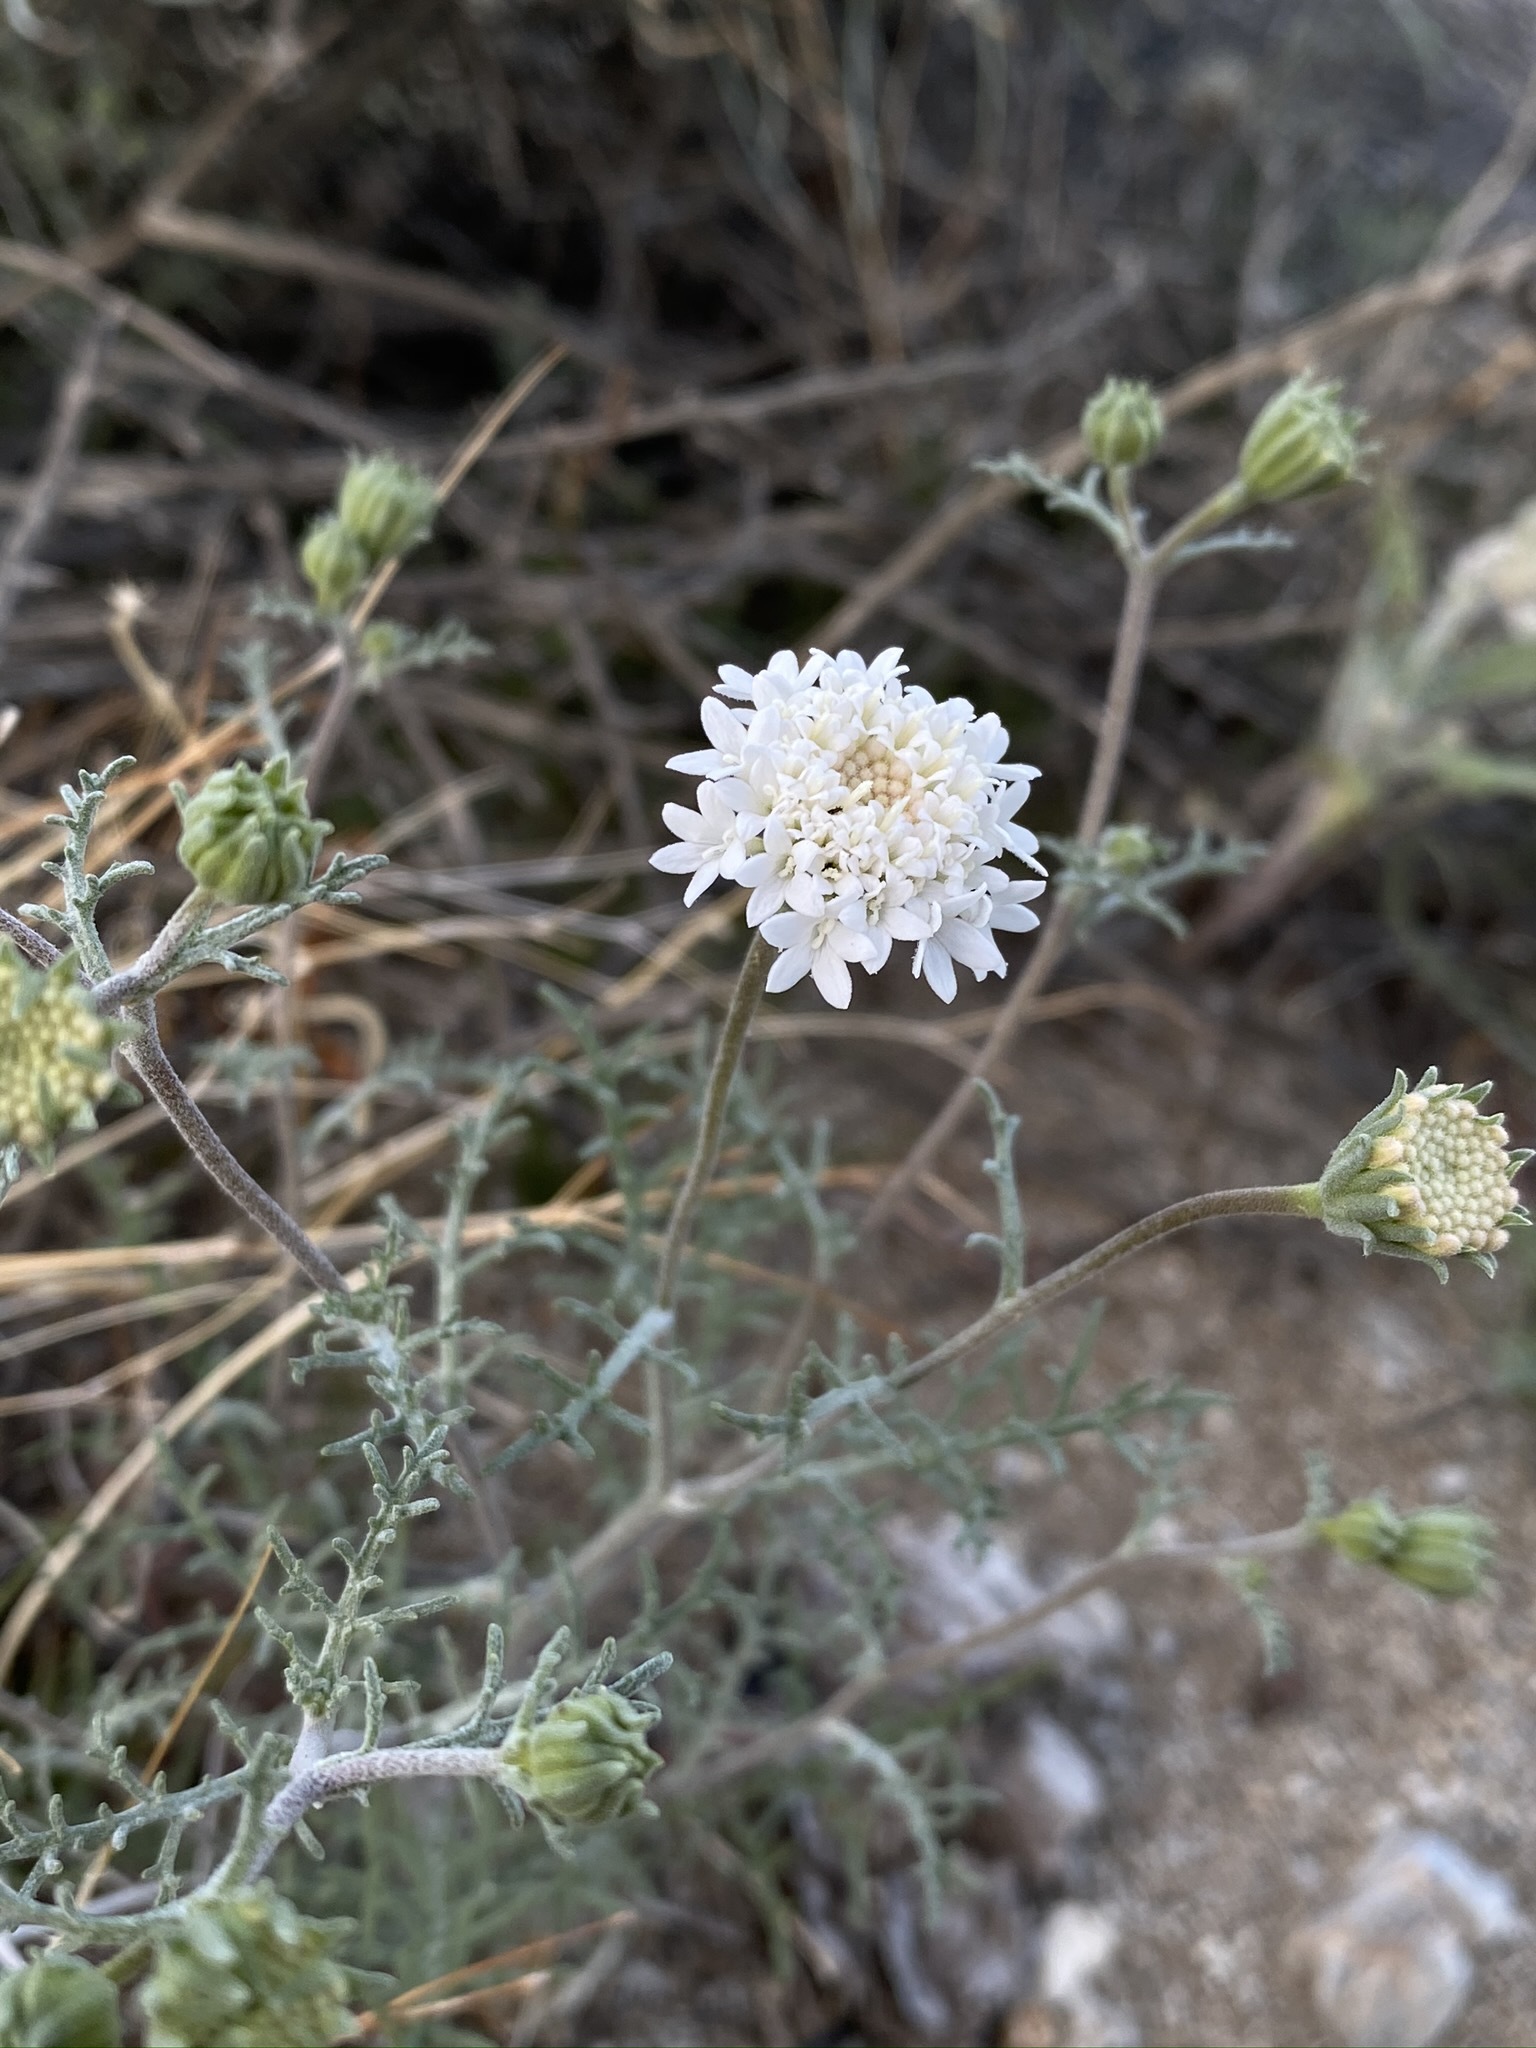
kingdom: Plantae
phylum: Tracheophyta
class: Magnoliopsida
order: Asterales
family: Asteraceae
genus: Chaenactis
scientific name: Chaenactis stevioides
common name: Desert pincushion
